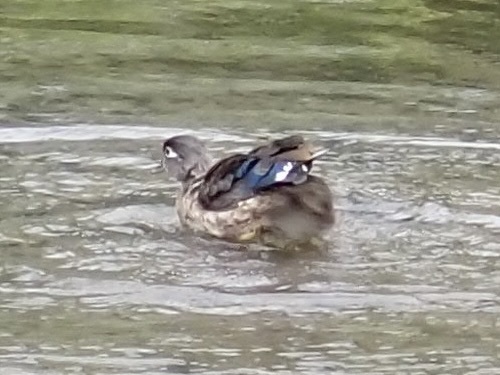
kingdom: Animalia
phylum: Chordata
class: Aves
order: Anseriformes
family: Anatidae
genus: Aix
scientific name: Aix sponsa
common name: Wood duck
